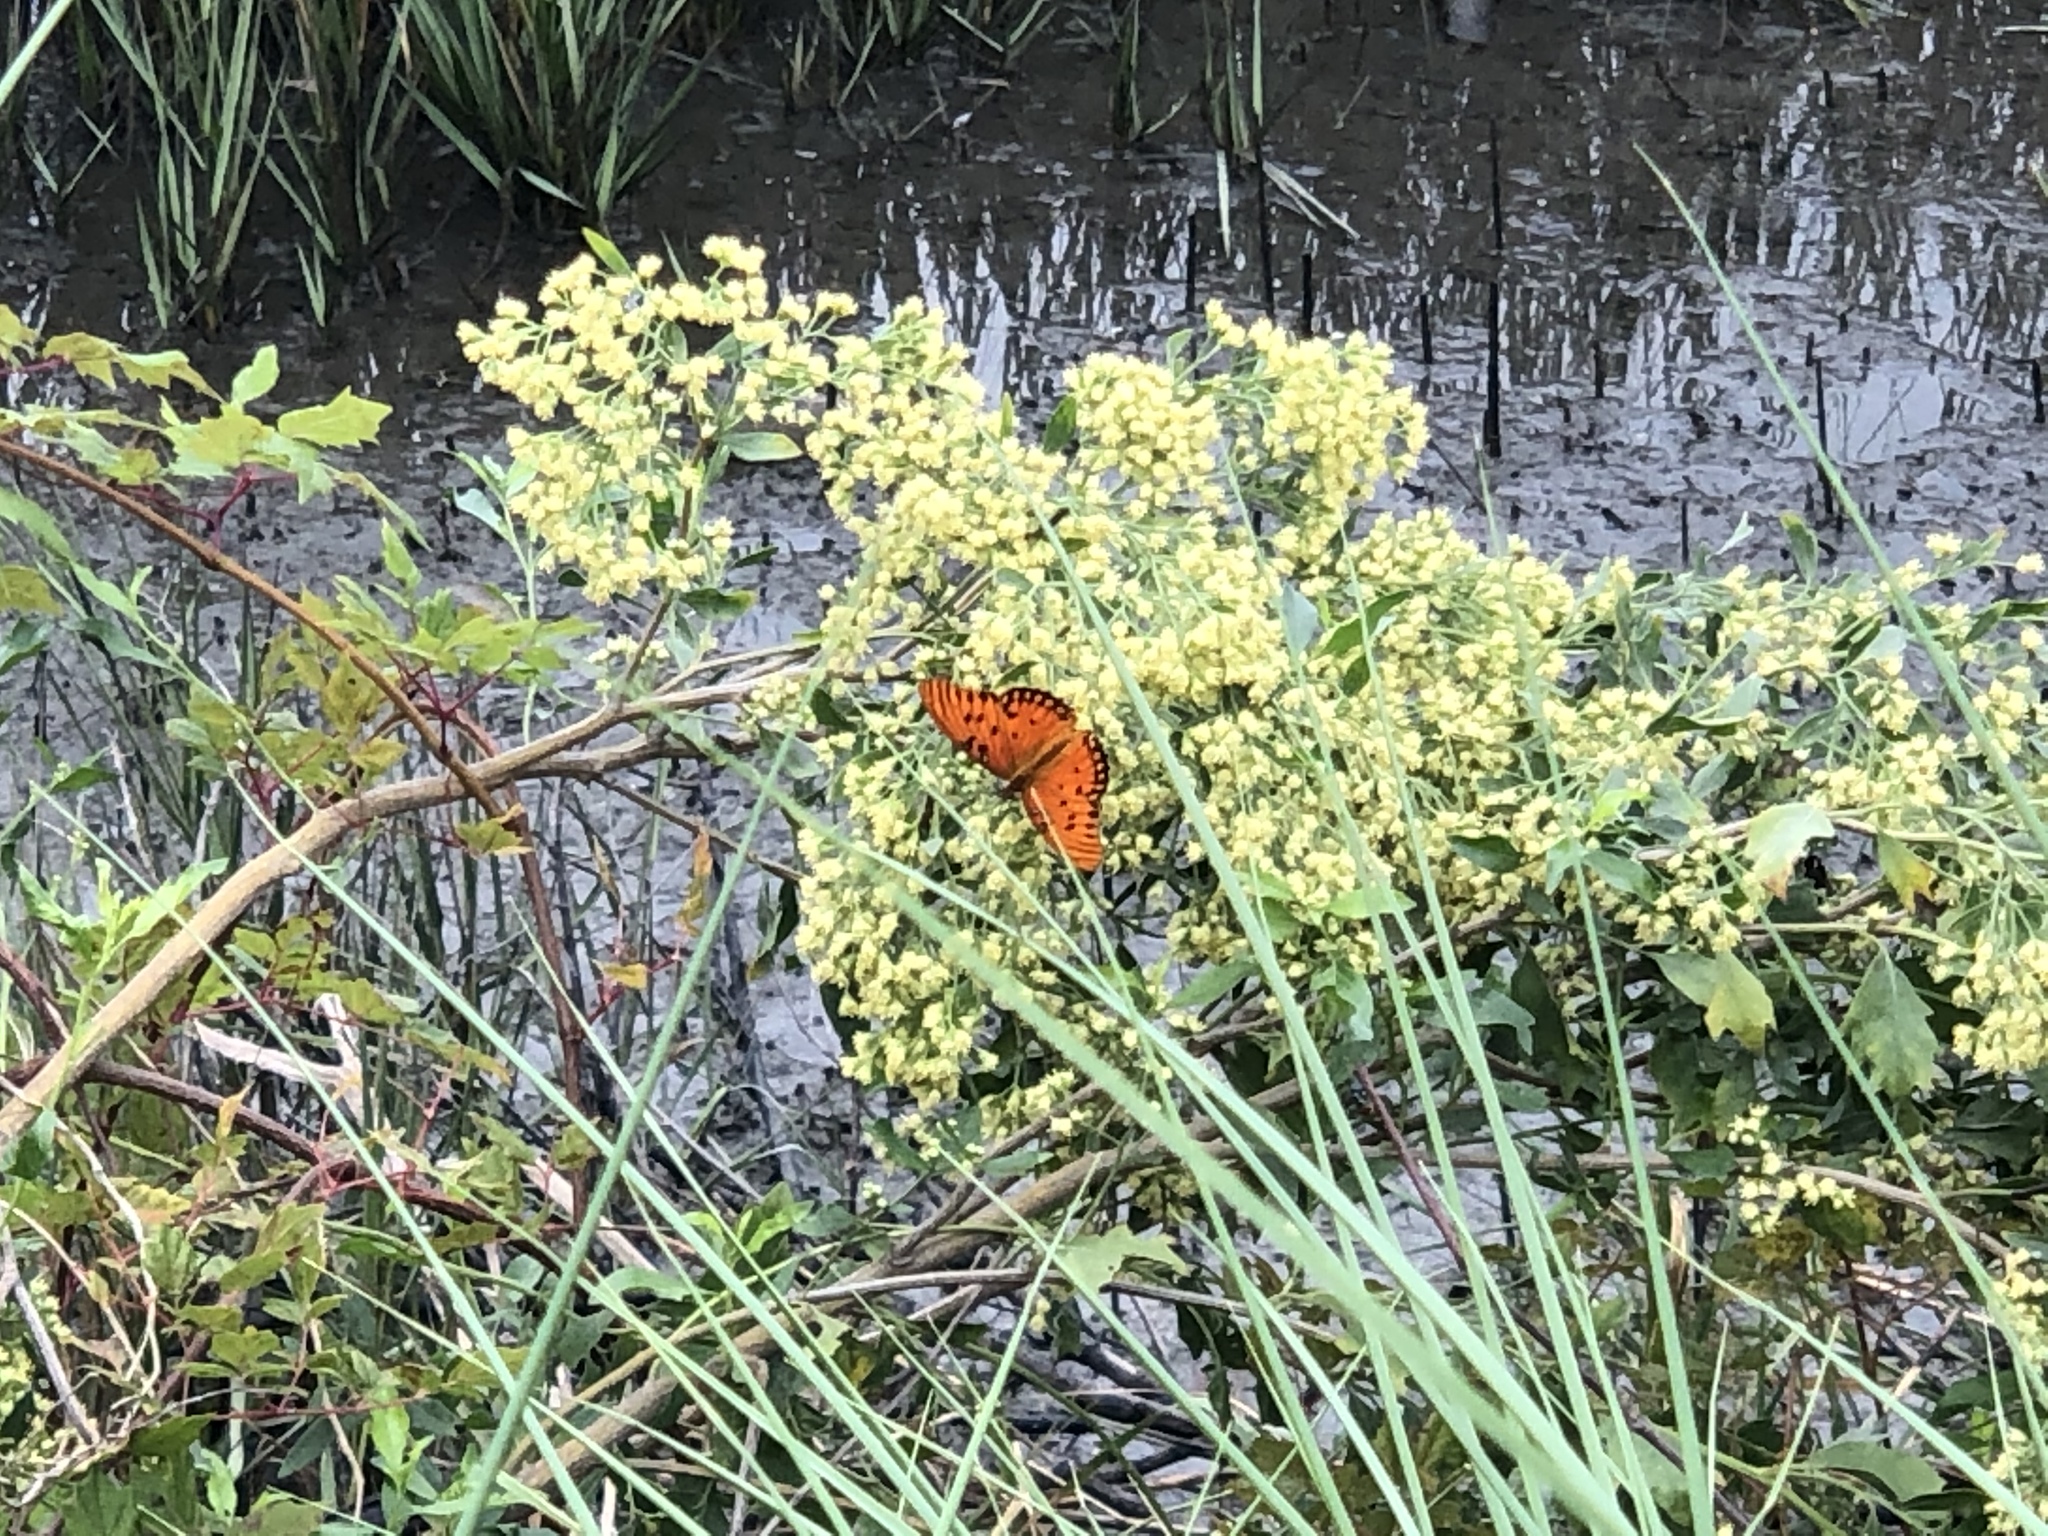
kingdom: Animalia
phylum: Arthropoda
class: Insecta
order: Lepidoptera
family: Nymphalidae
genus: Dione
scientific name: Dione vanillae
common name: Gulf fritillary
